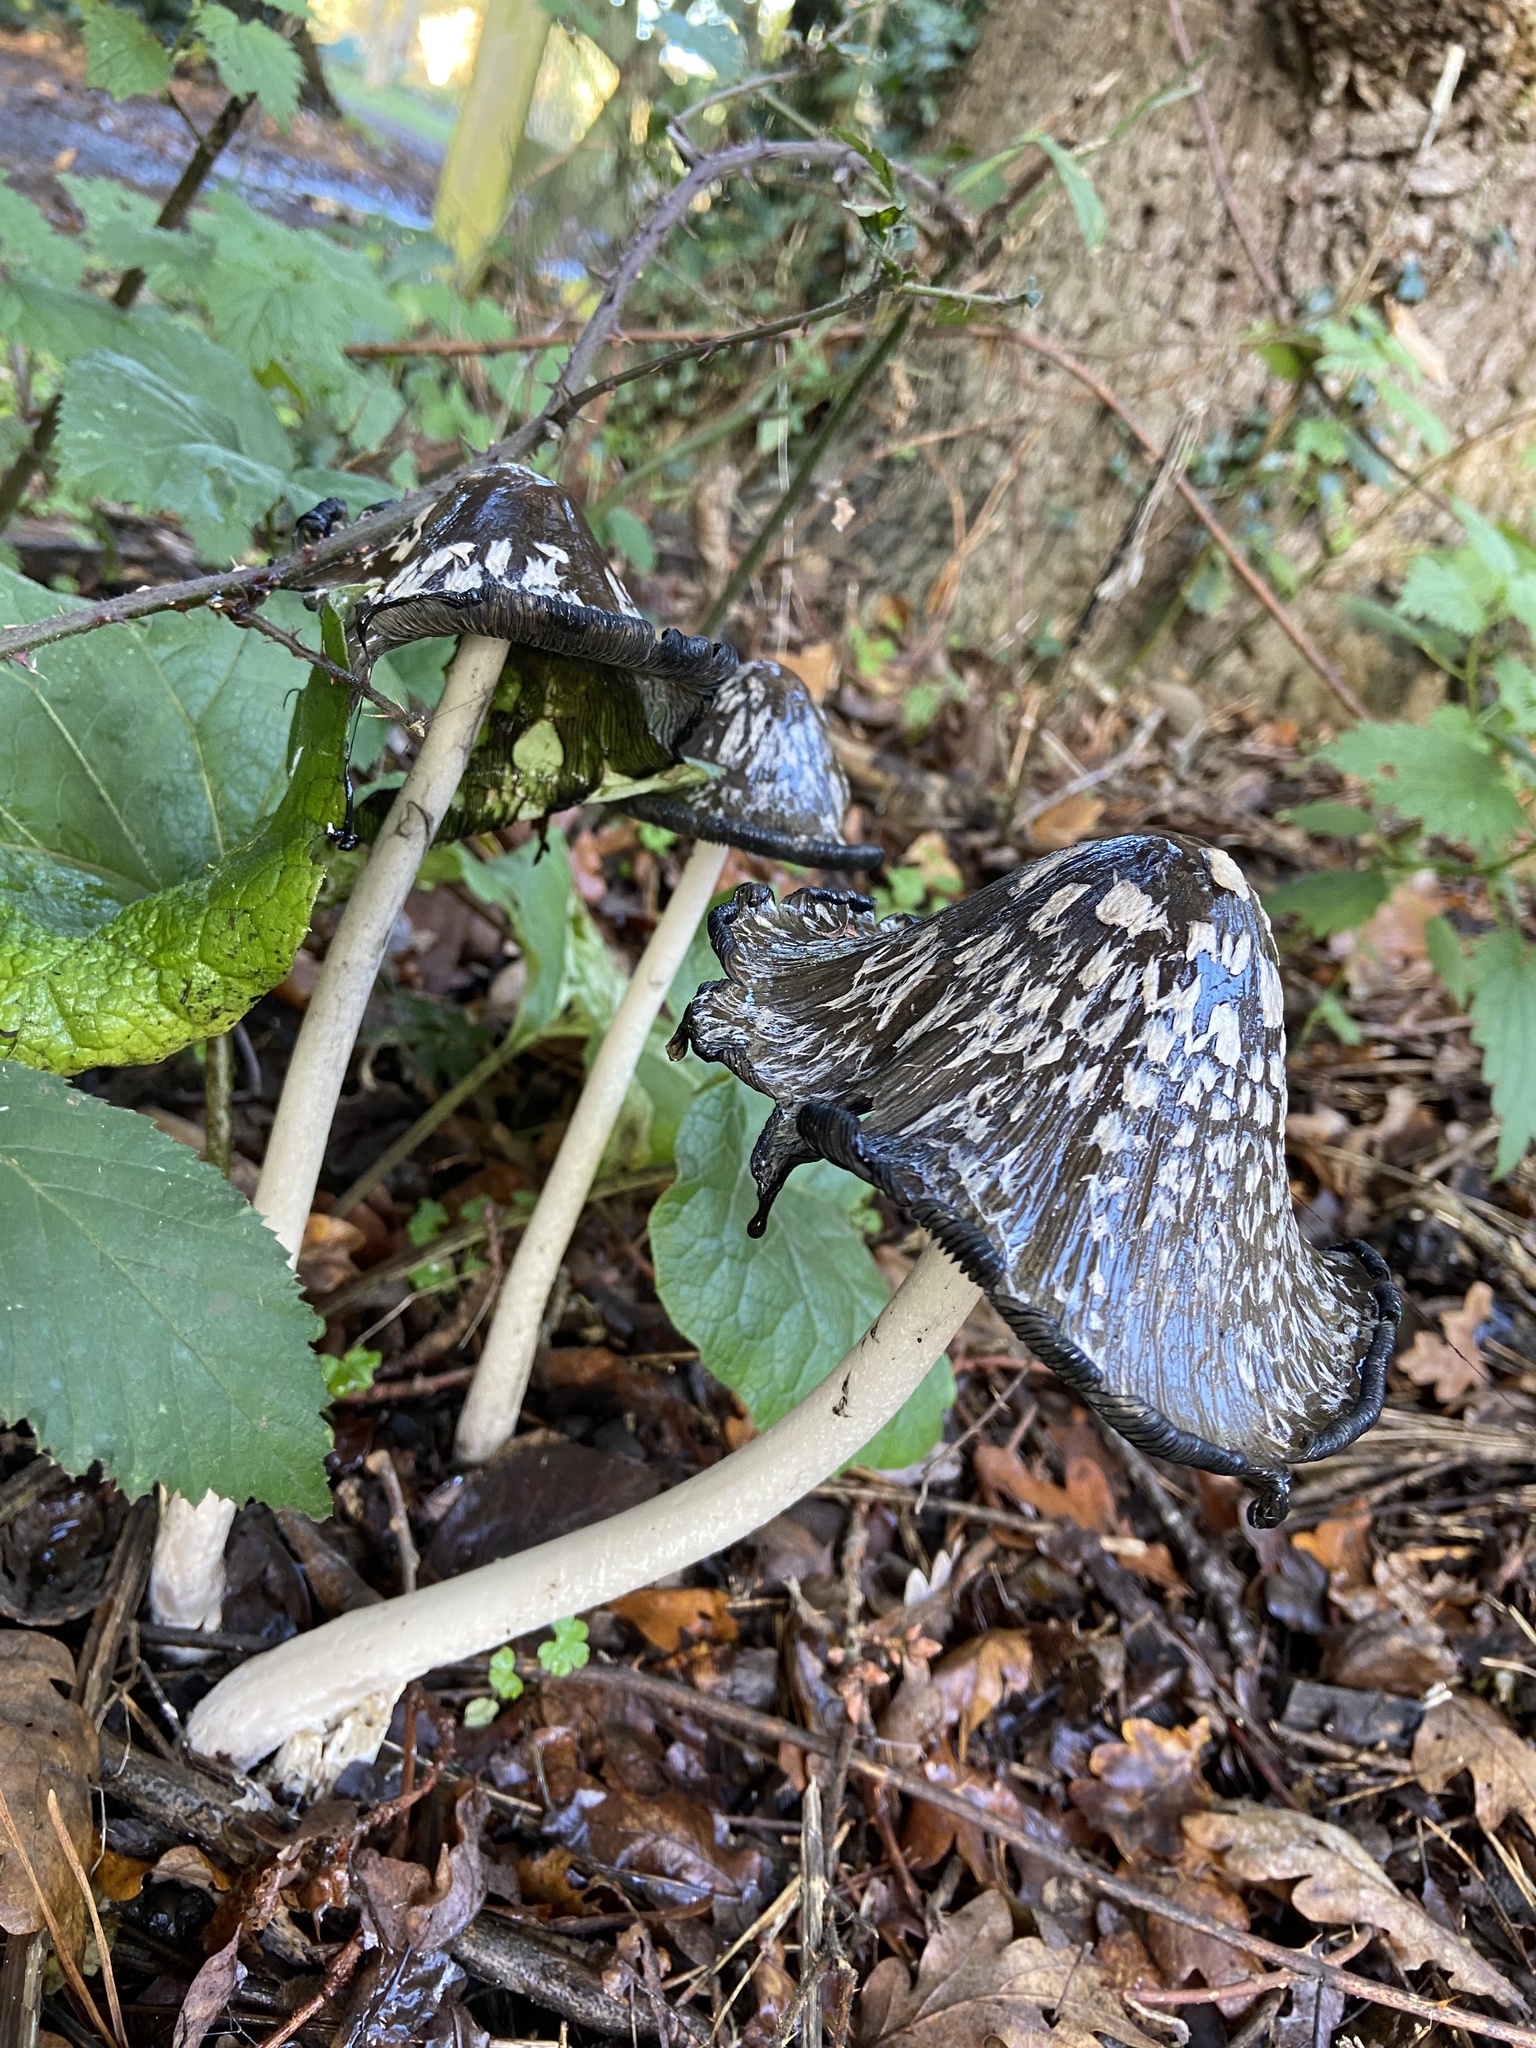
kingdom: Fungi
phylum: Basidiomycota
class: Agaricomycetes
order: Agaricales
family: Psathyrellaceae
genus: Coprinopsis
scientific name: Coprinopsis picacea
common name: Magpie inkcap
